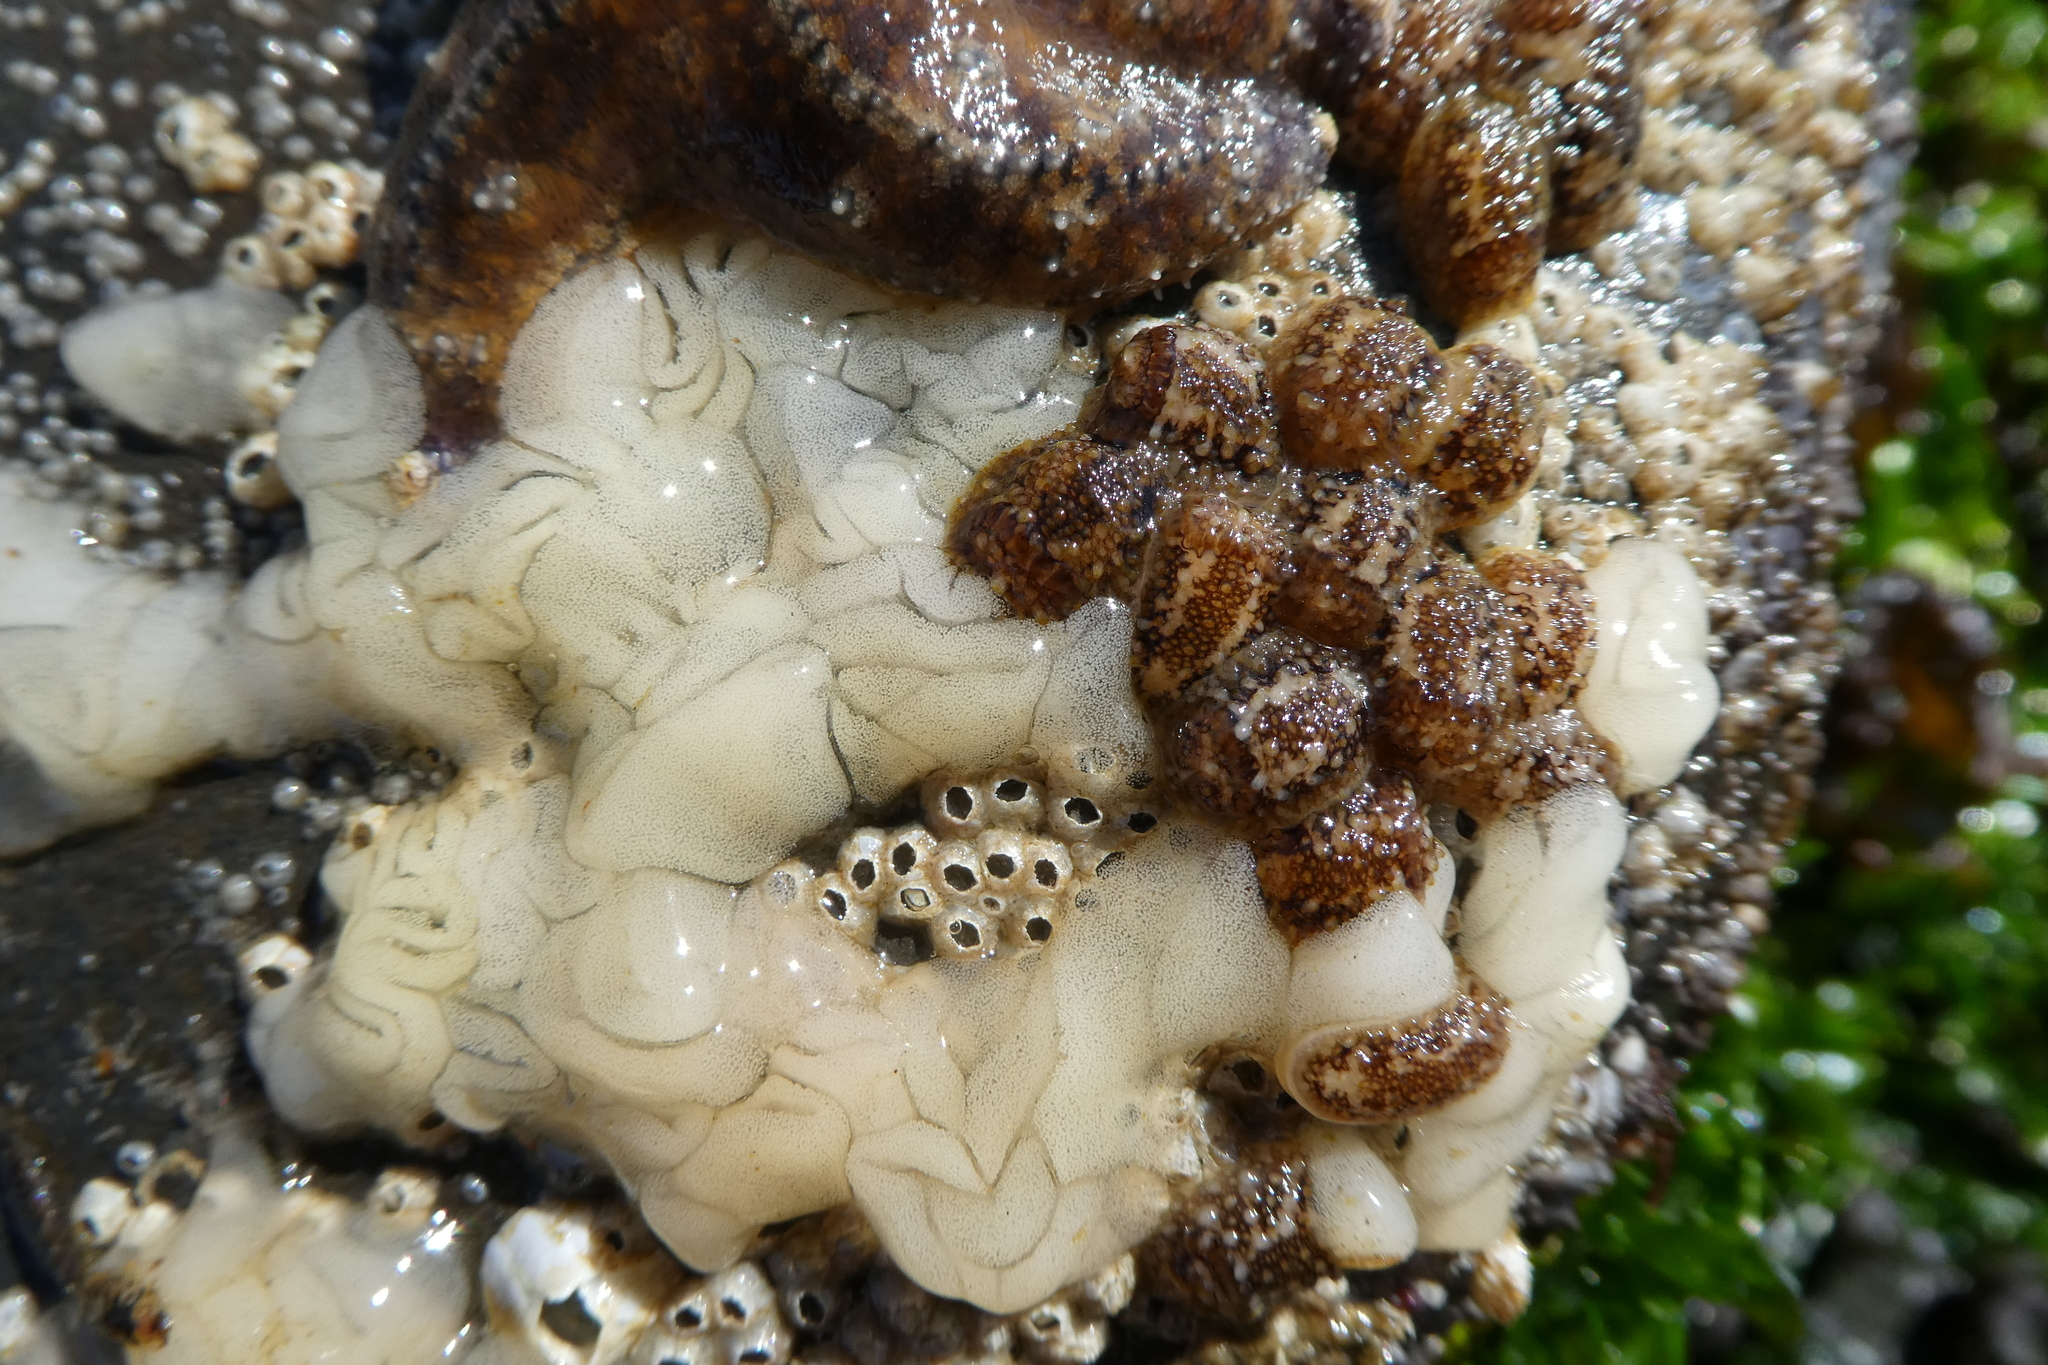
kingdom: Animalia
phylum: Mollusca
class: Gastropoda
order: Nudibranchia
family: Onchidorididae
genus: Onchidoris
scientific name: Onchidoris bilamellata
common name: Barnacle-eating onchidoris
